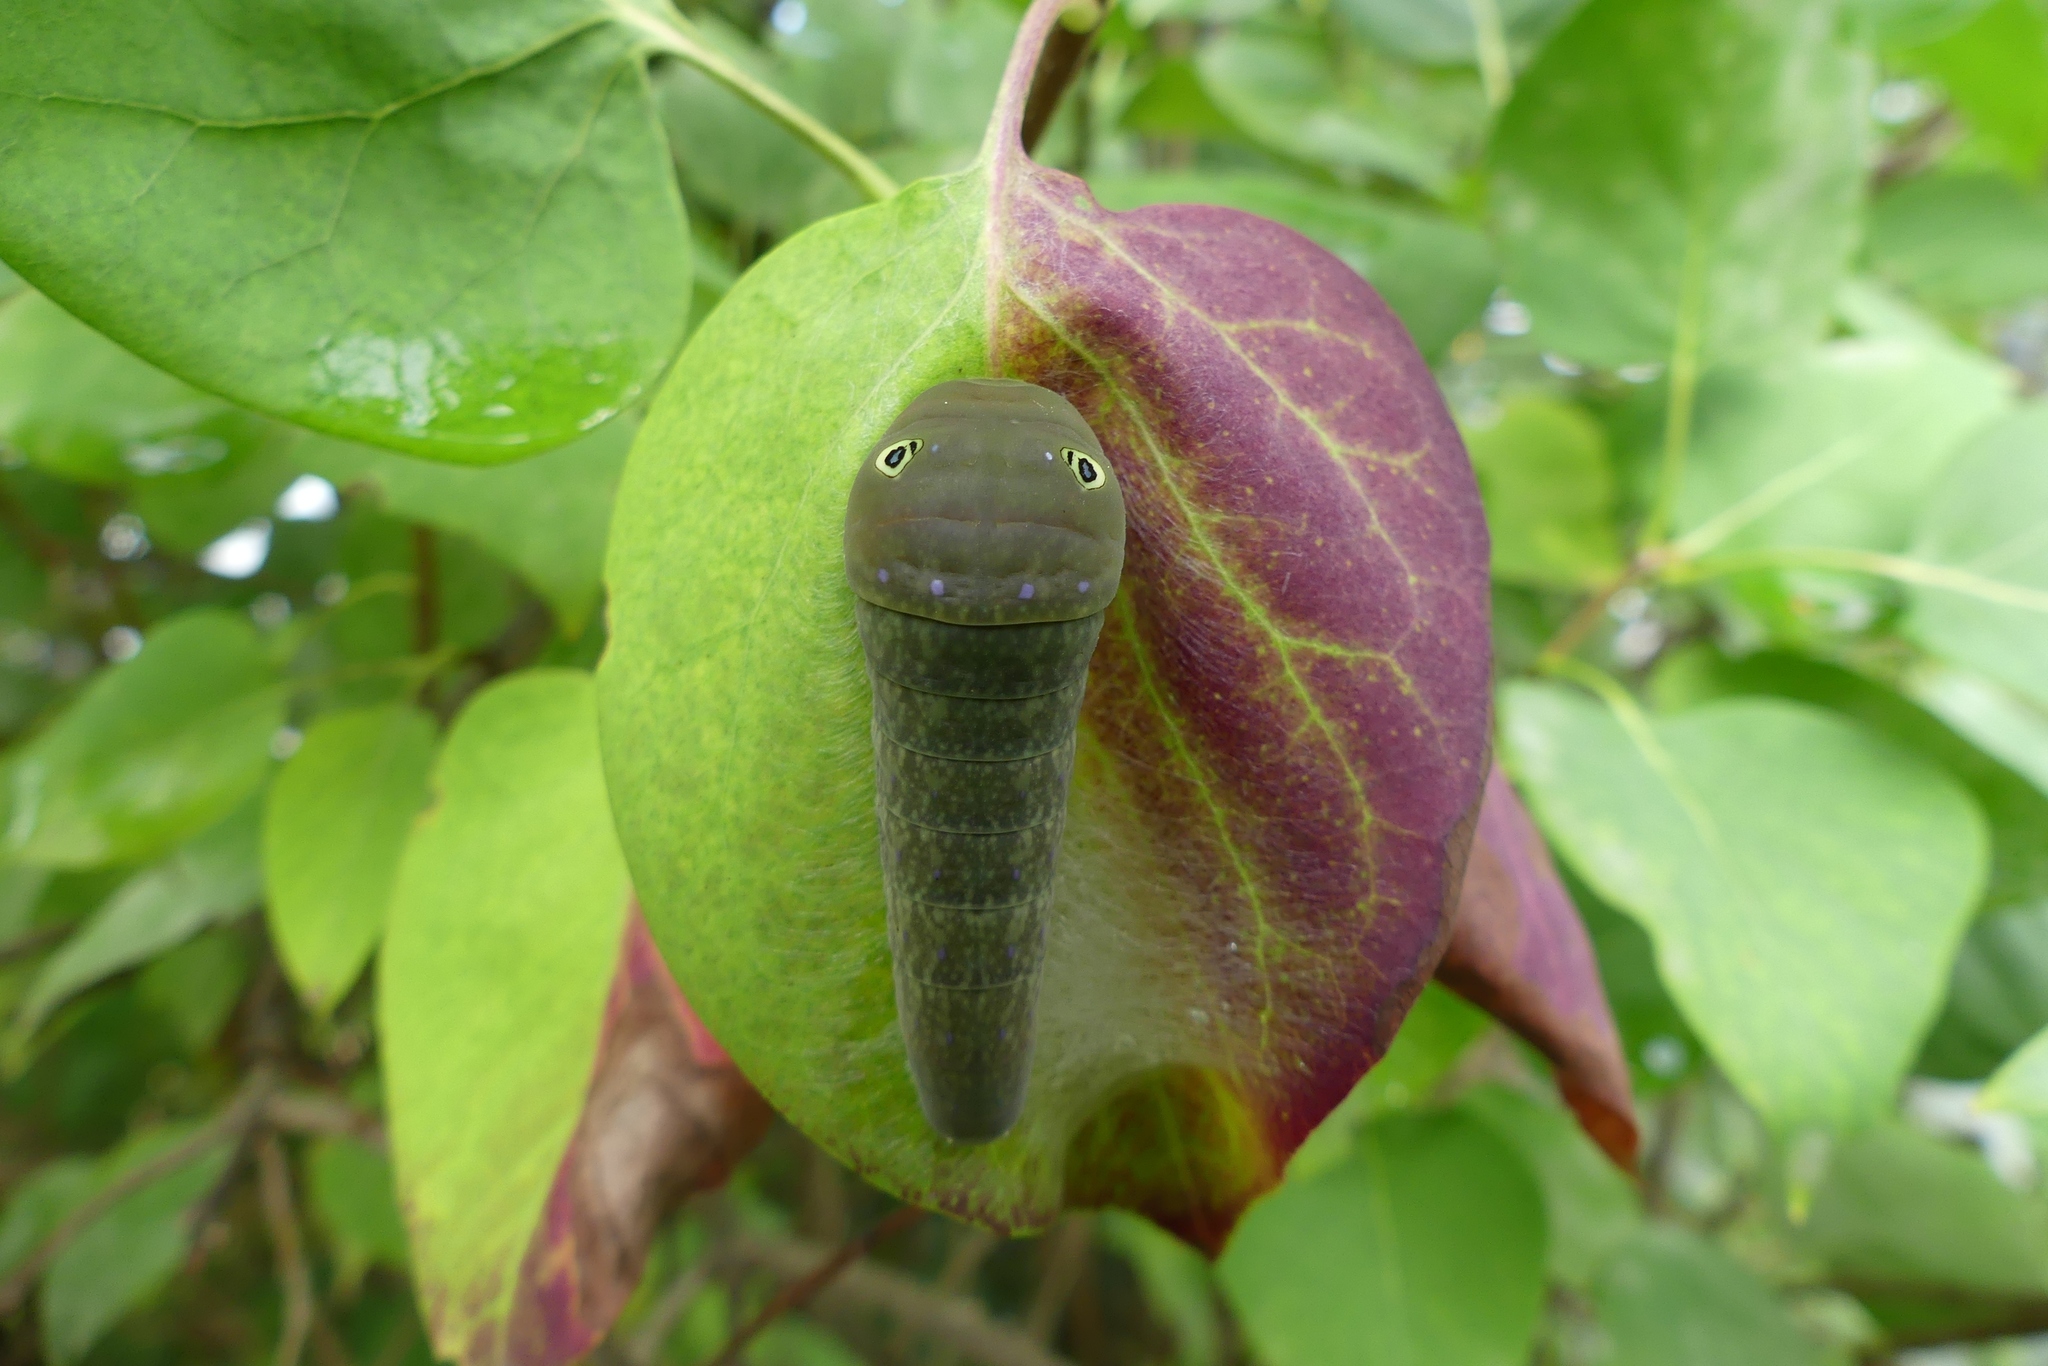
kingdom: Animalia
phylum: Arthropoda
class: Insecta
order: Lepidoptera
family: Papilionidae
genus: Papilio
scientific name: Papilio glaucus
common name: Tiger swallowtail
